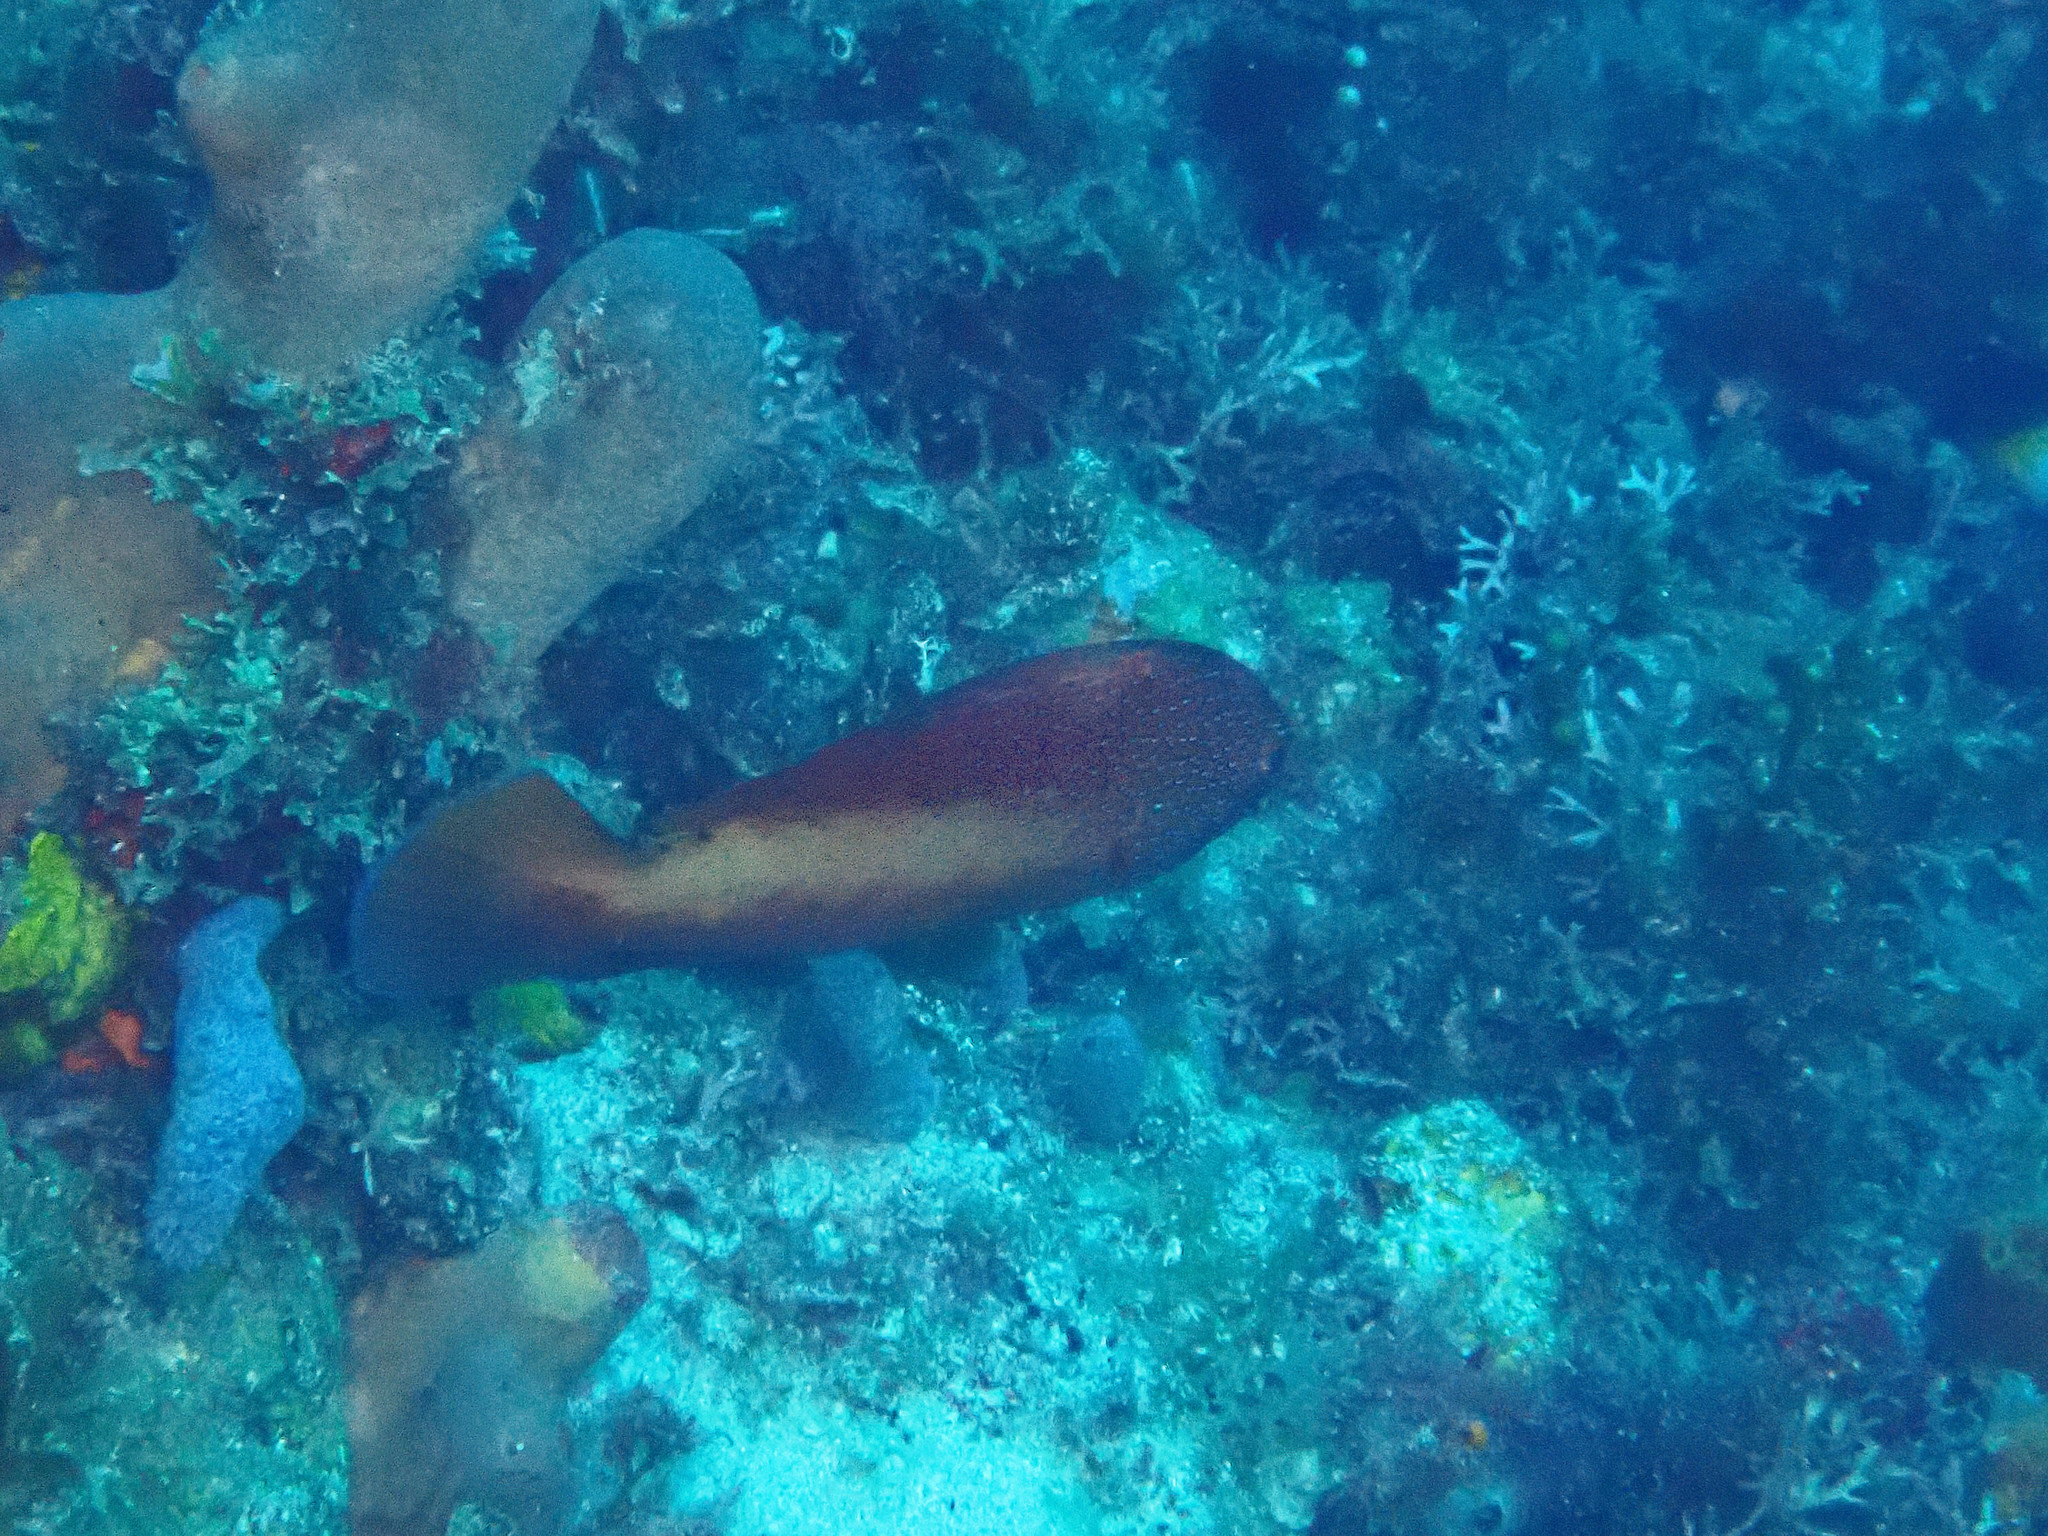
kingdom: Animalia
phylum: Chordata
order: Perciformes
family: Serranidae
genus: Cephalopholis
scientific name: Cephalopholis fulva
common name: Butterfish
